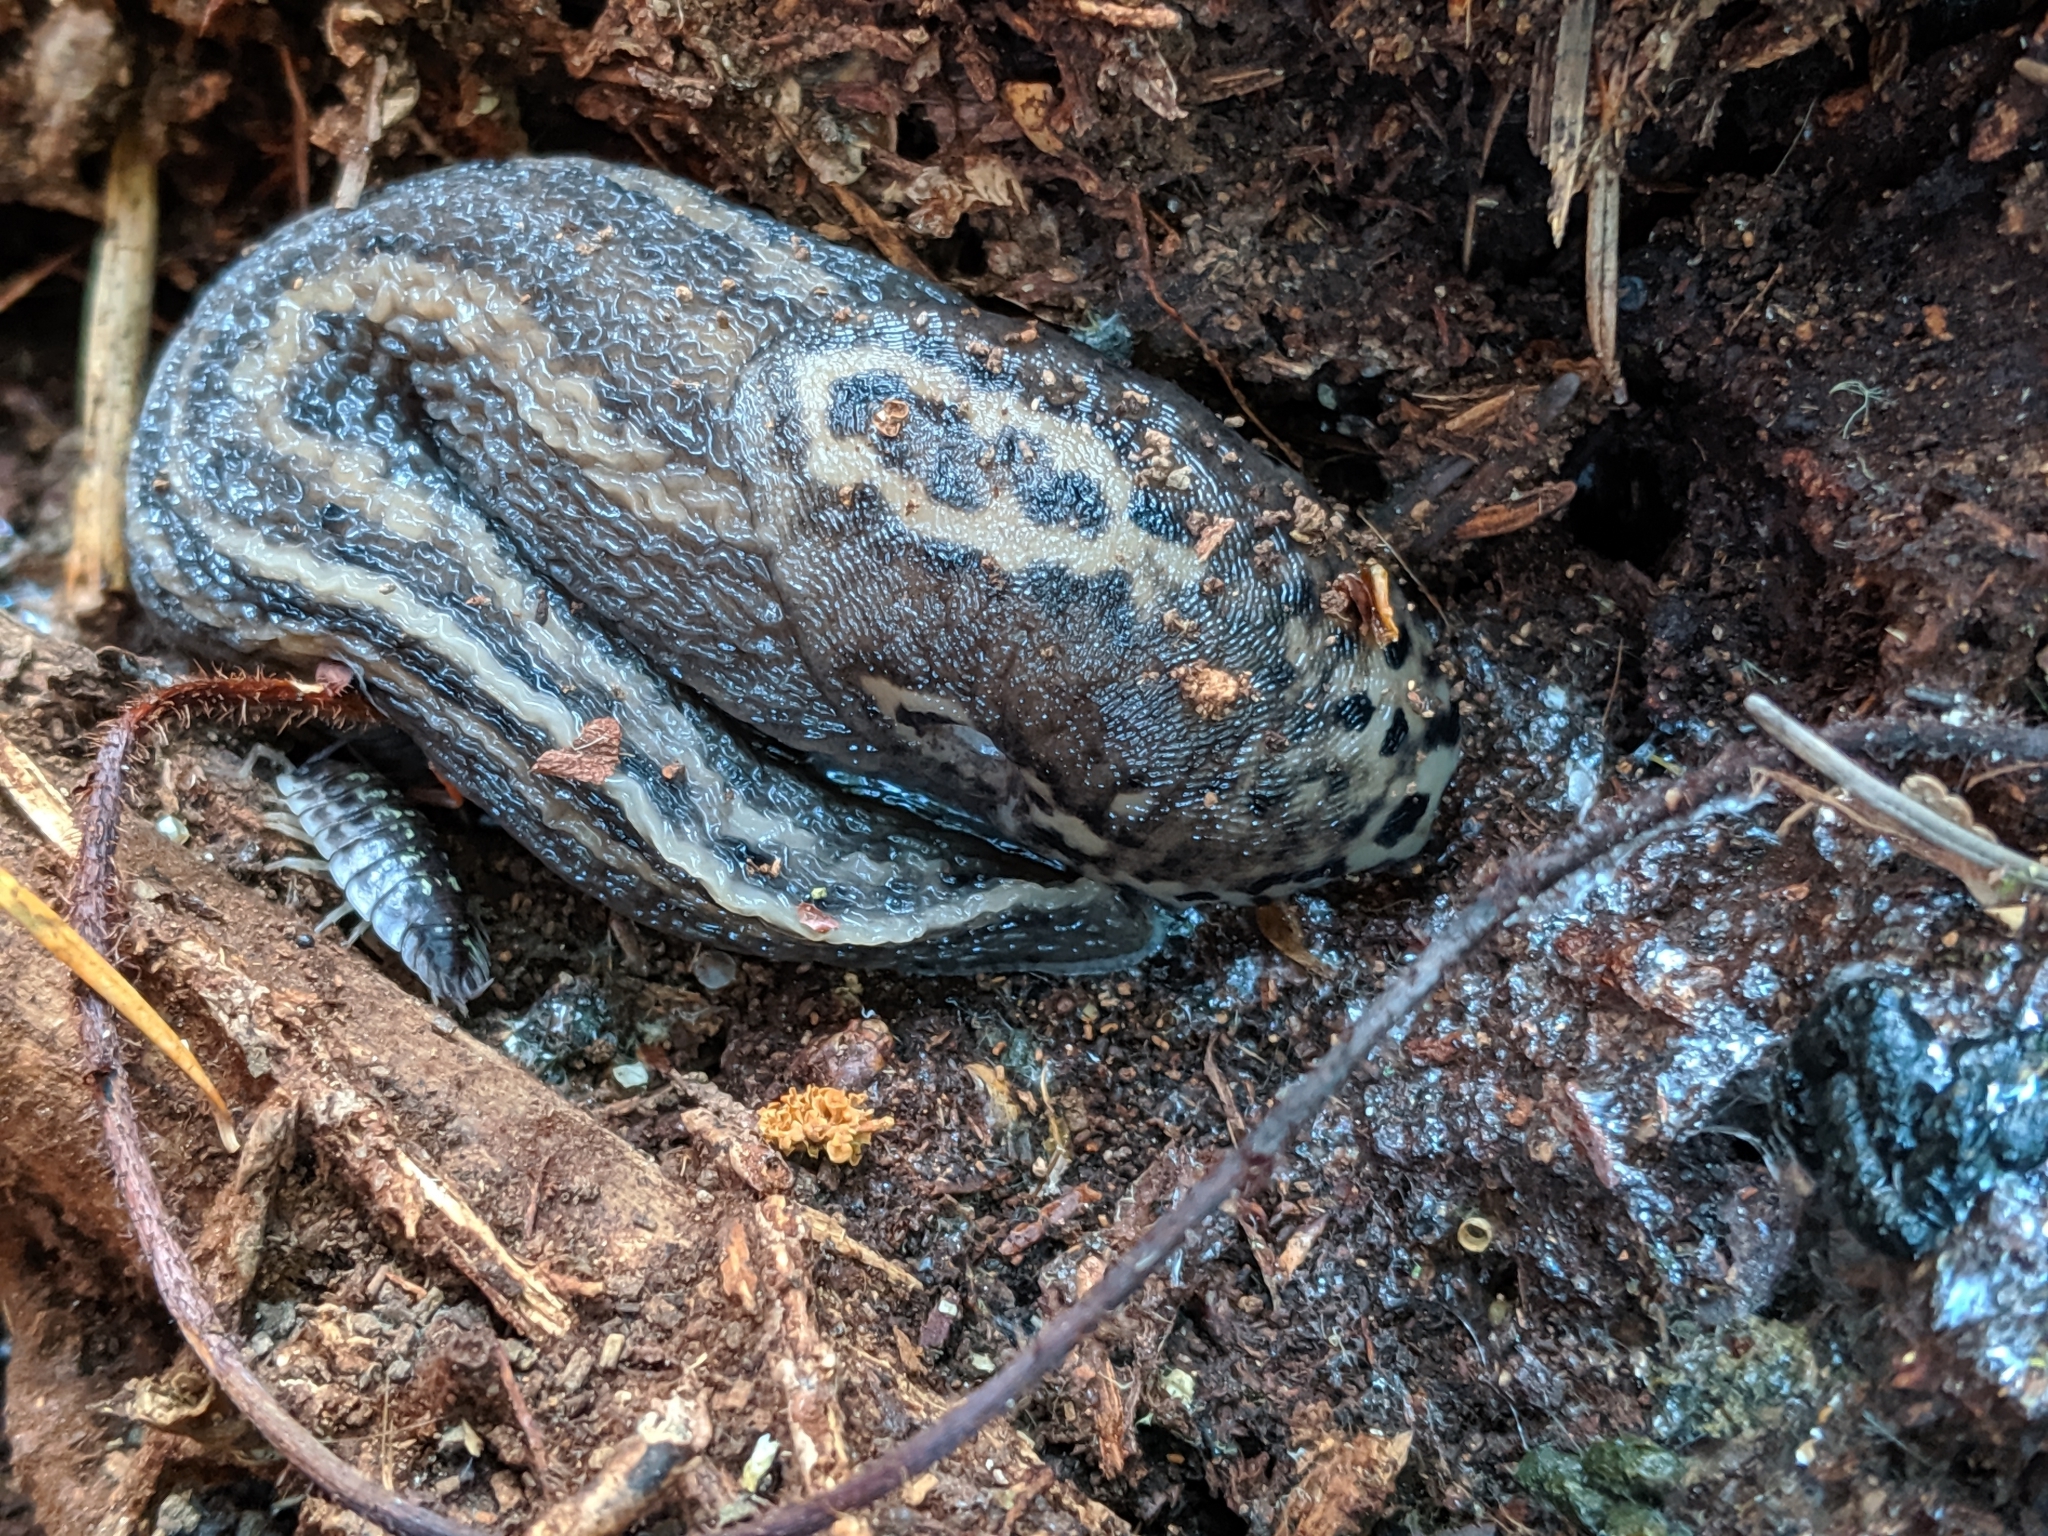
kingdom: Animalia
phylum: Mollusca
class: Gastropoda
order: Stylommatophora
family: Limacidae
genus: Limax
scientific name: Limax maximus
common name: Great grey slug
